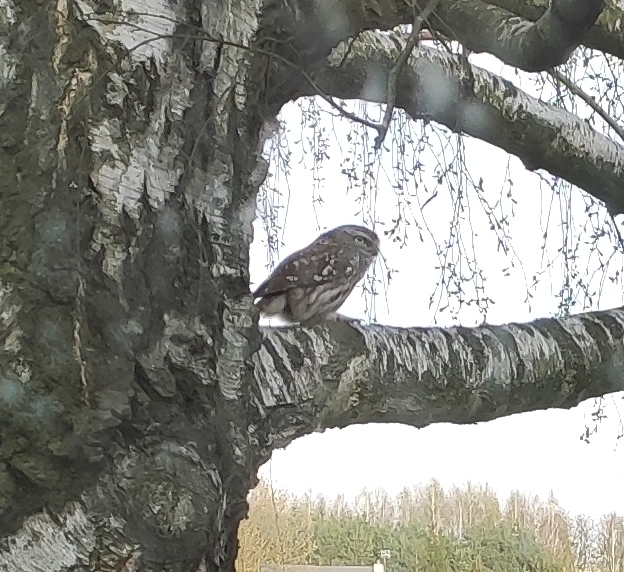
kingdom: Animalia
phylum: Chordata
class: Aves
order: Strigiformes
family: Strigidae
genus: Athene
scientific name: Athene noctua
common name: Little owl
